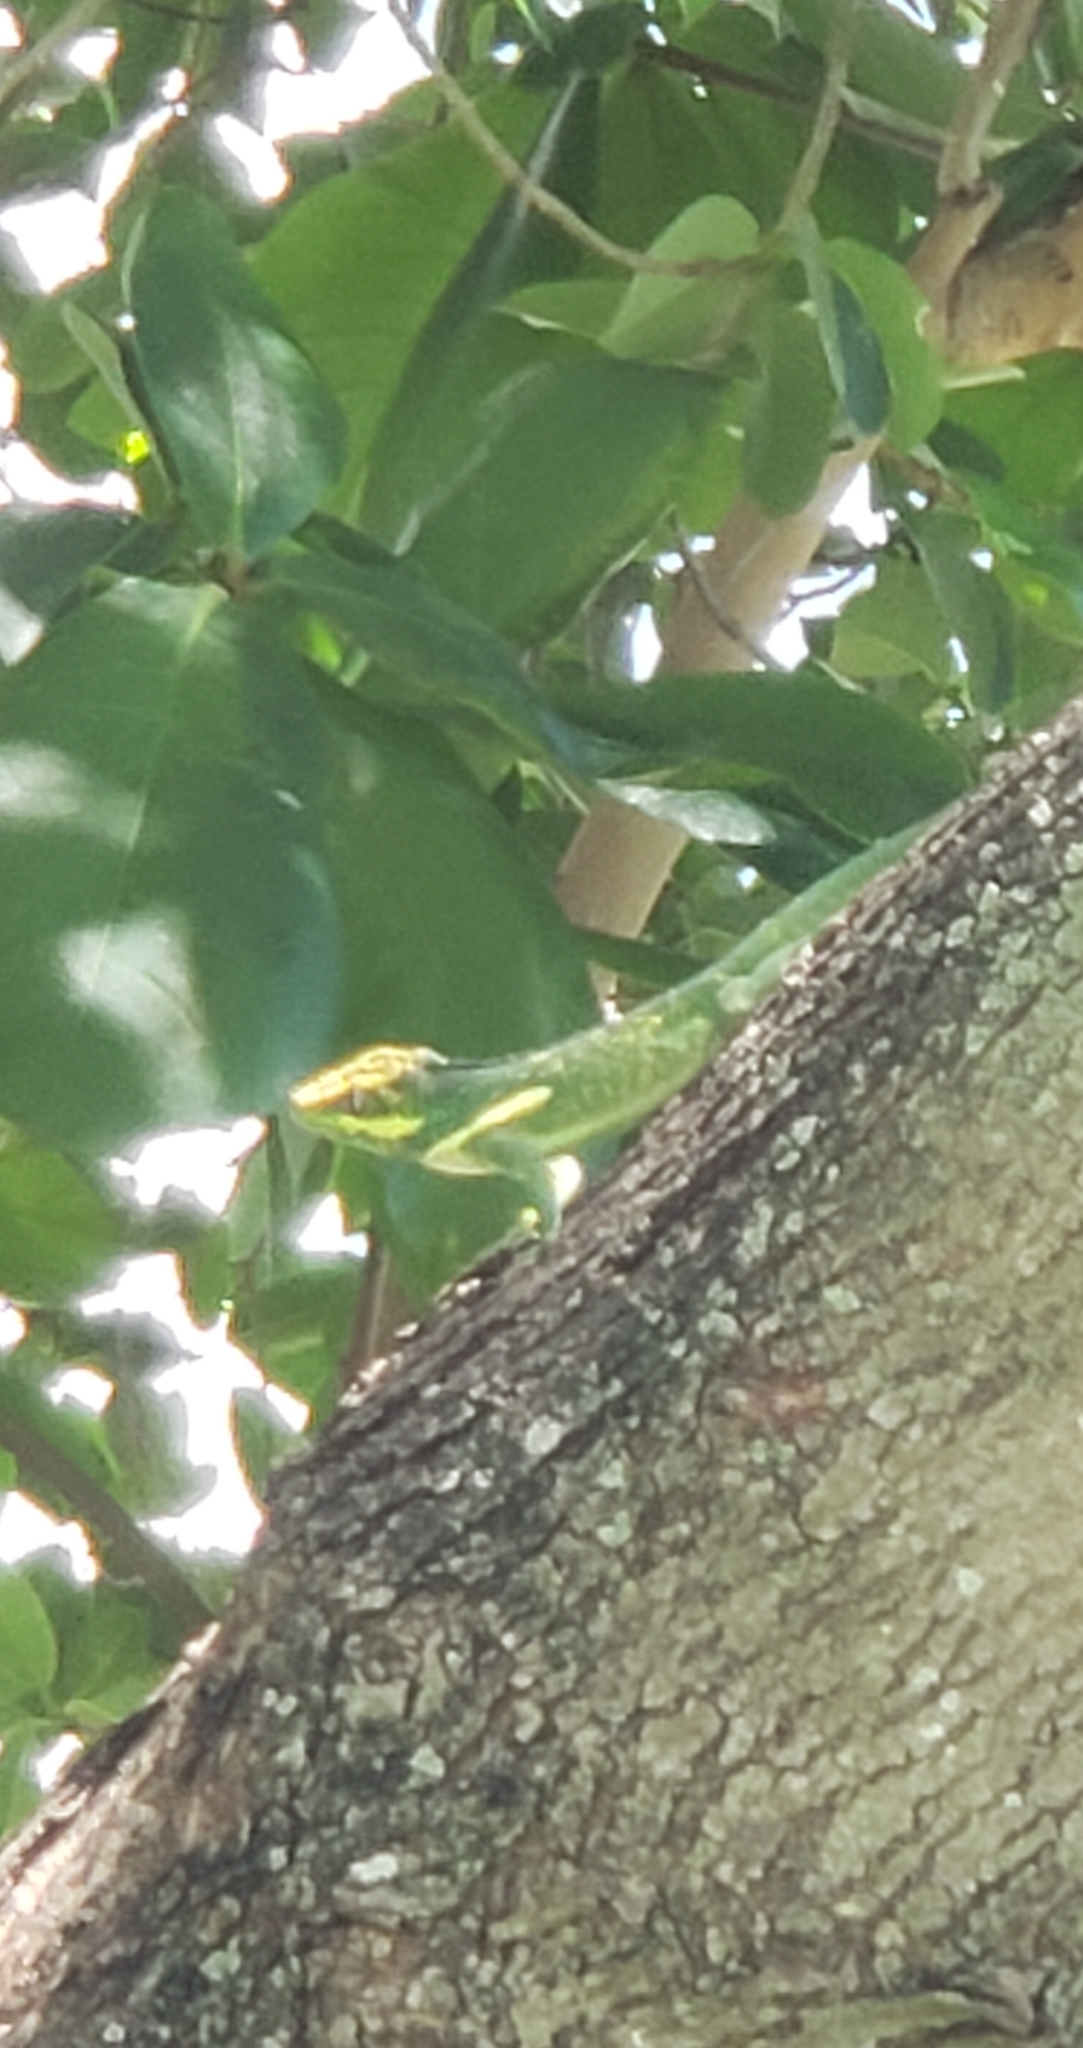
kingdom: Animalia
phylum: Chordata
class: Squamata
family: Dactyloidae
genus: Anolis
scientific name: Anolis equestris
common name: Knight anole
